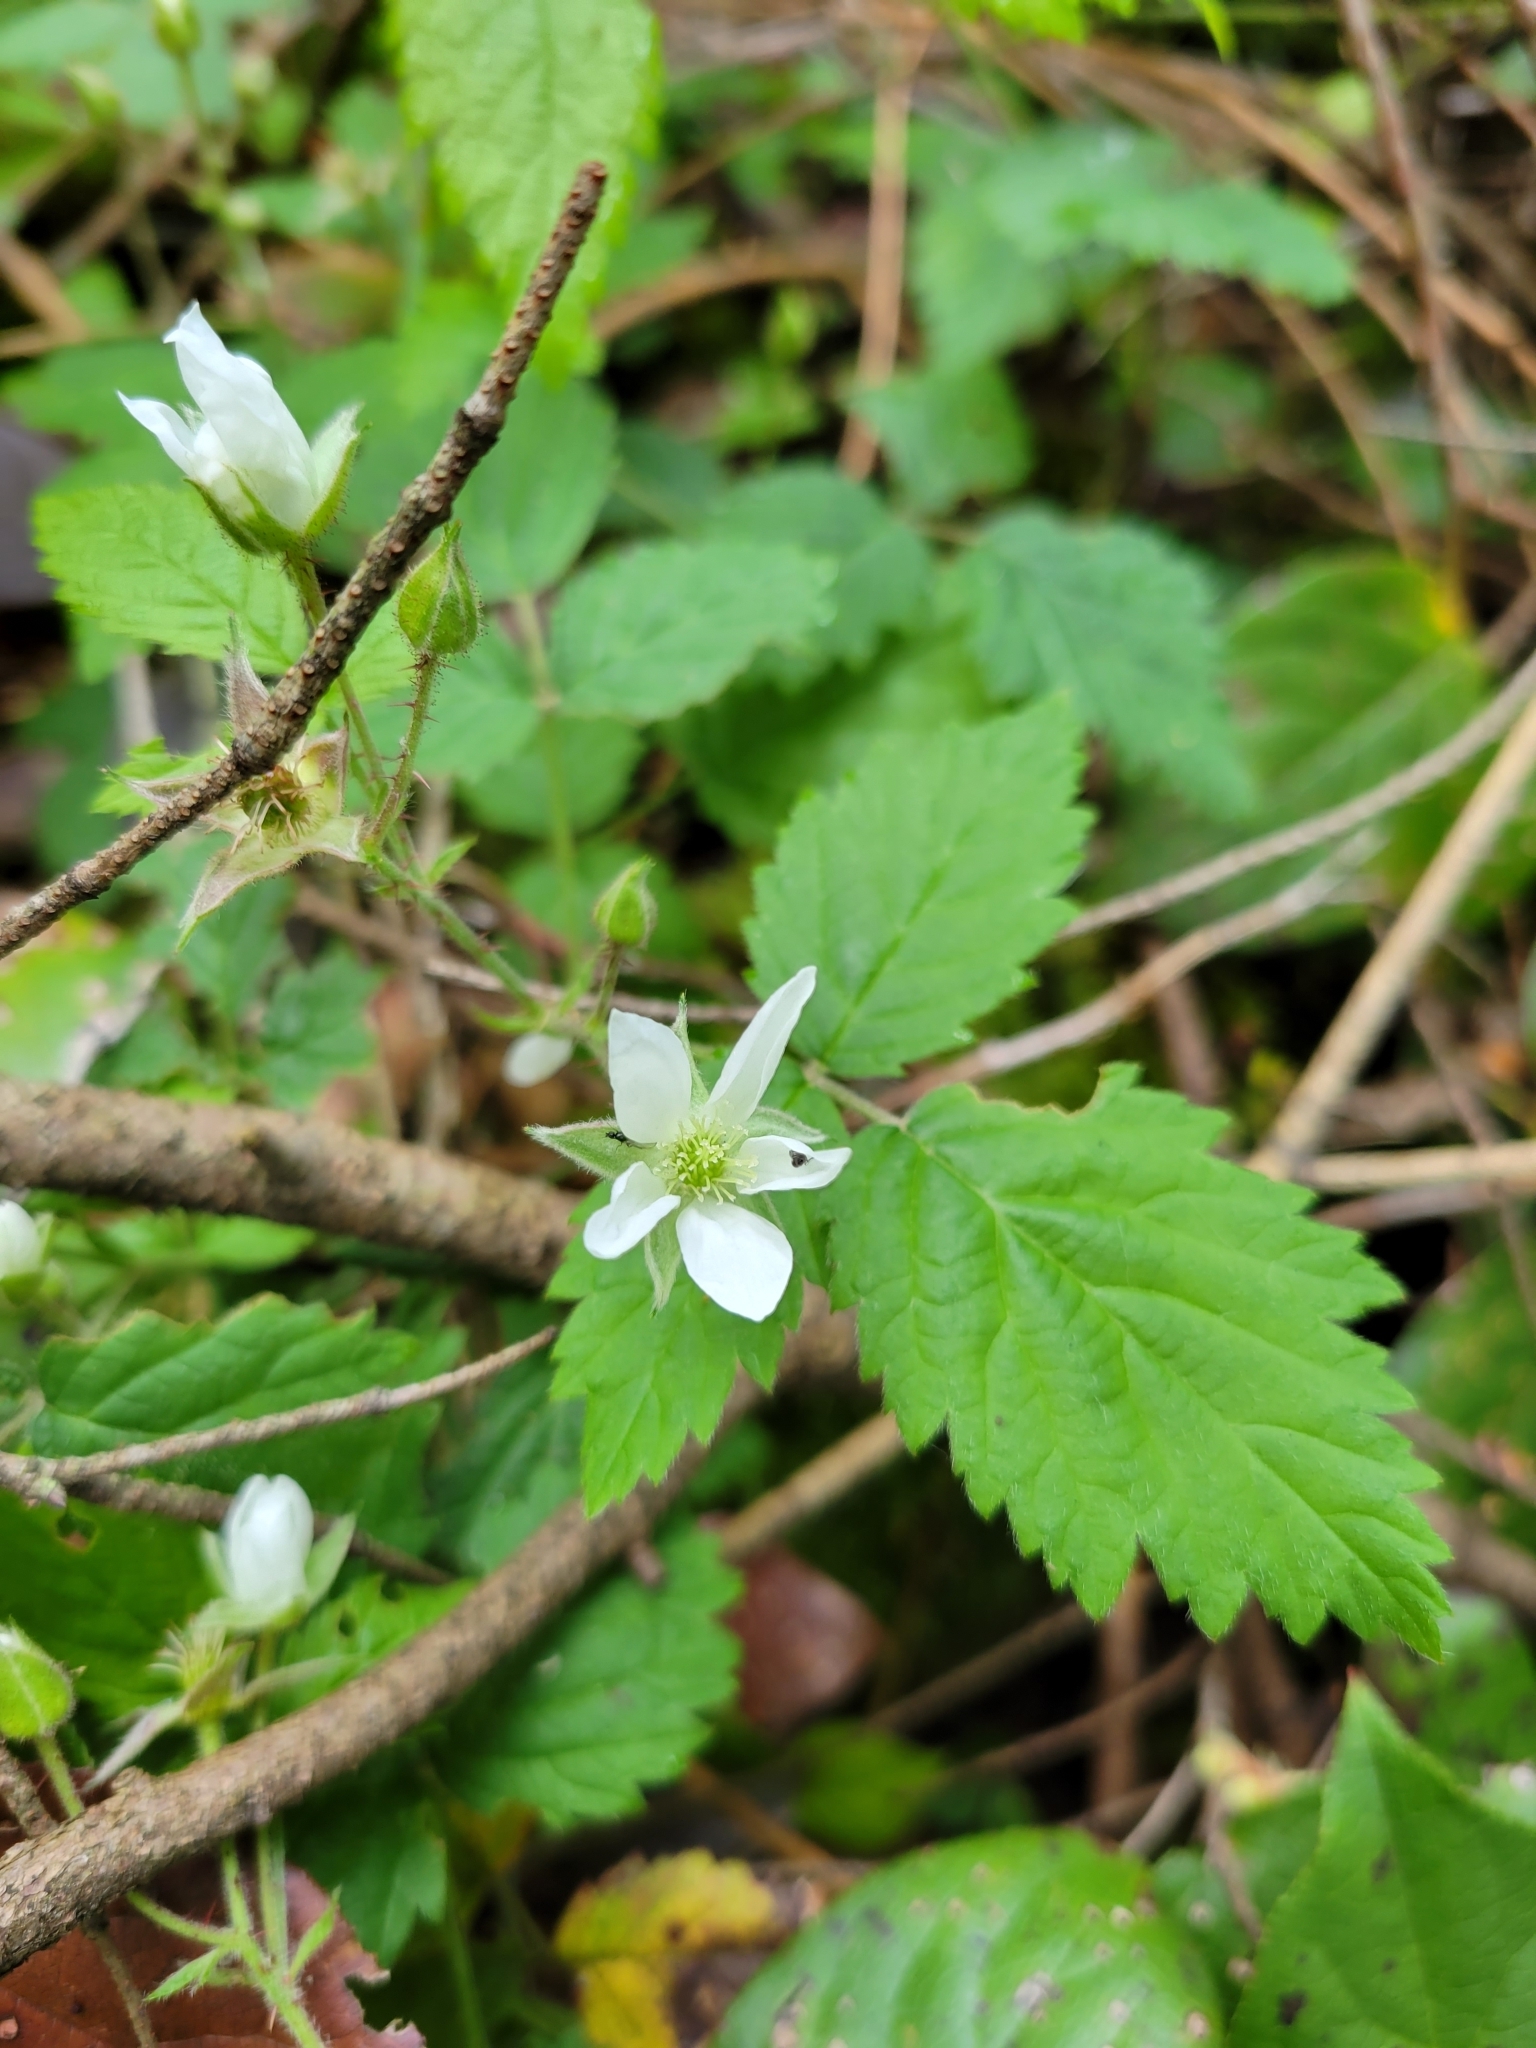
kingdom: Plantae
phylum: Tracheophyta
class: Magnoliopsida
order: Rosales
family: Rosaceae
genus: Rubus
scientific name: Rubus ursinus
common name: Pacific blackberry
